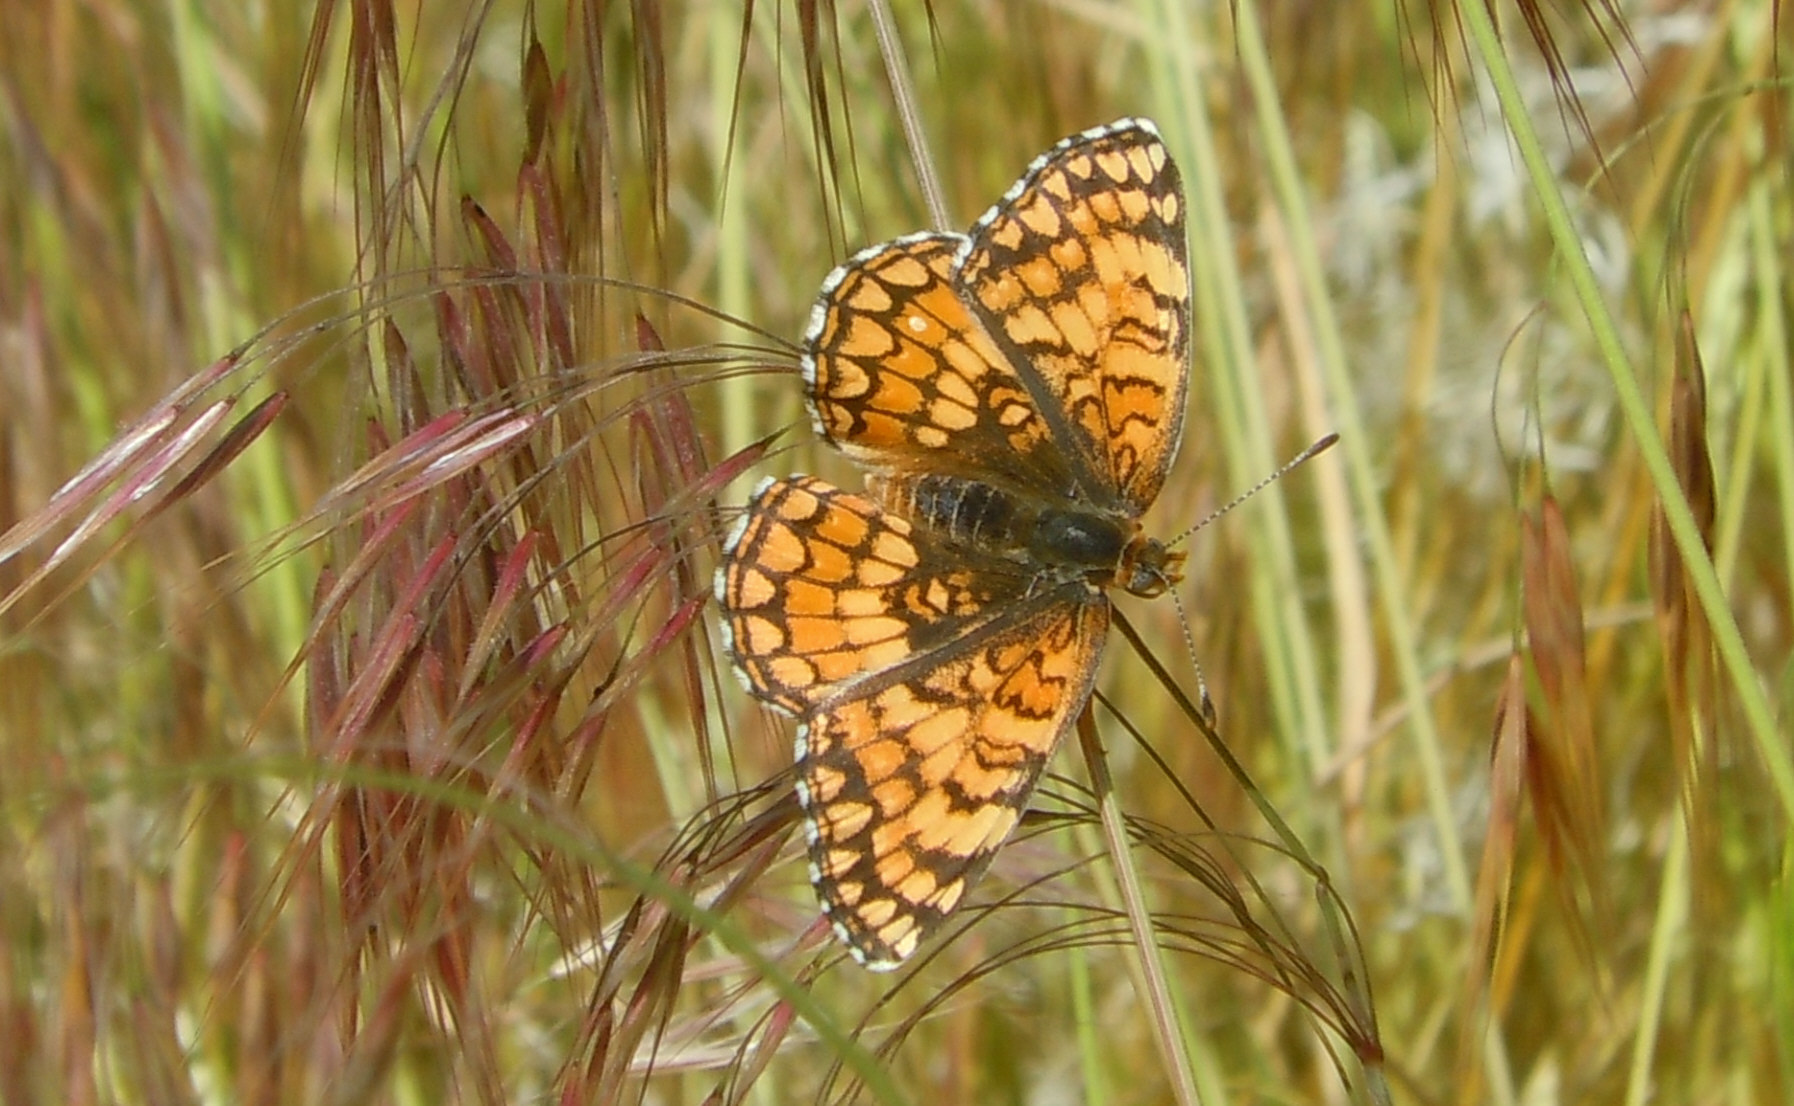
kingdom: Animalia
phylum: Arthropoda
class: Insecta
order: Lepidoptera
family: Nymphalidae
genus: Chlosyne
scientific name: Chlosyne acastus
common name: Sagebrush checkerspot
